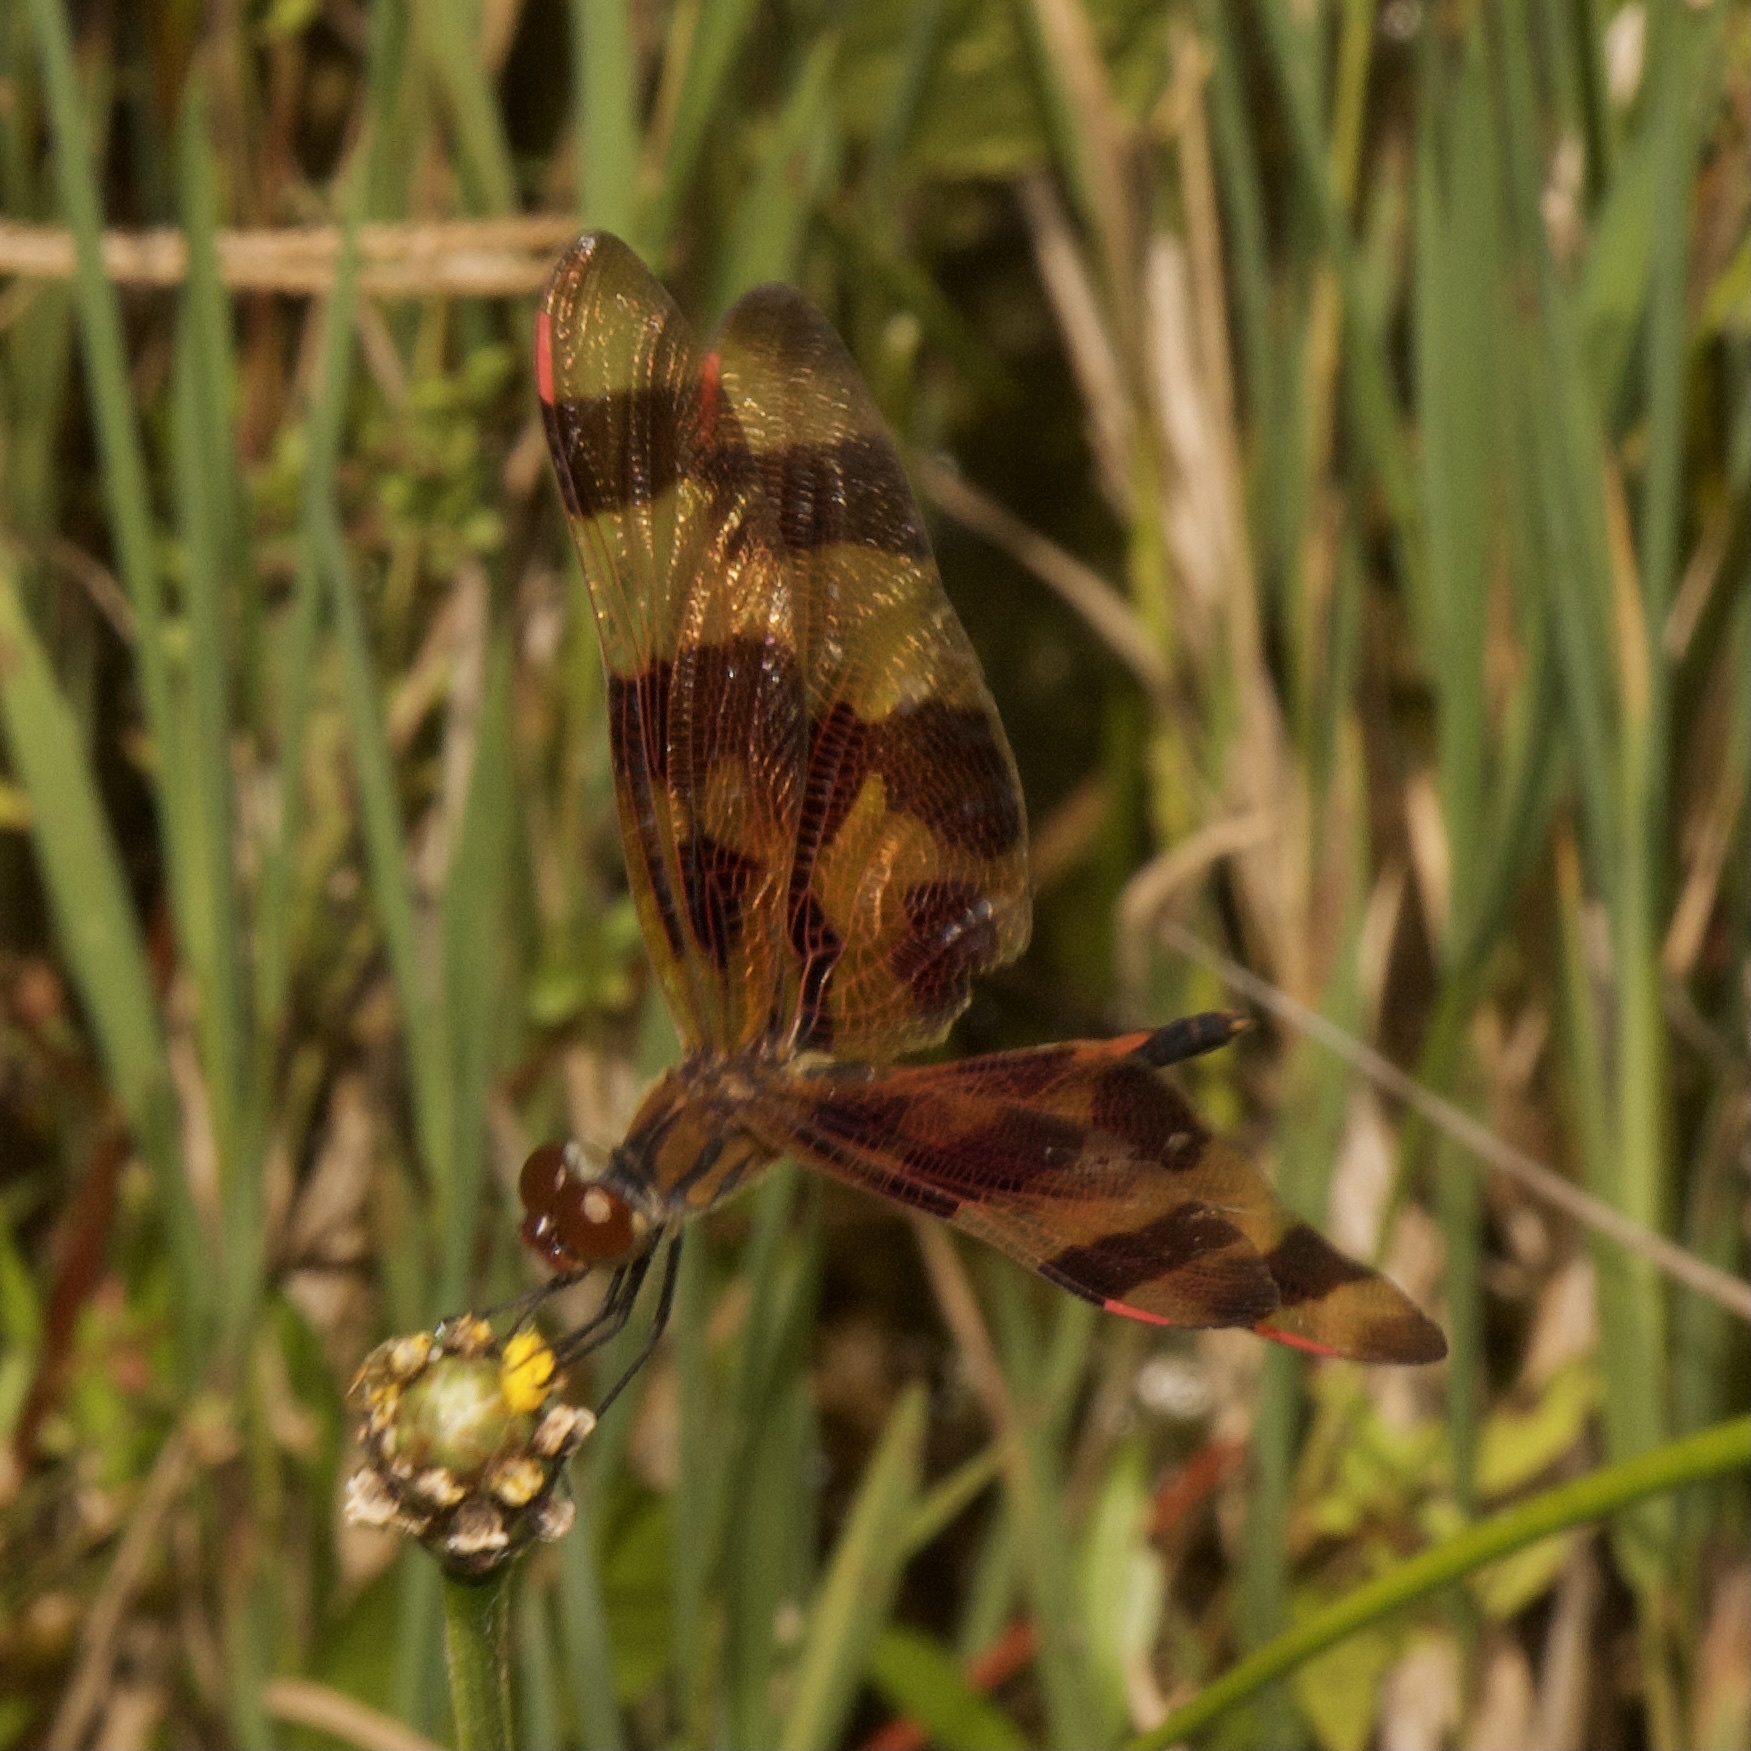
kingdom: Animalia
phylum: Arthropoda
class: Insecta
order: Odonata
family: Libellulidae
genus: Celithemis
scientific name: Celithemis eponina
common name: Halloween pennant
